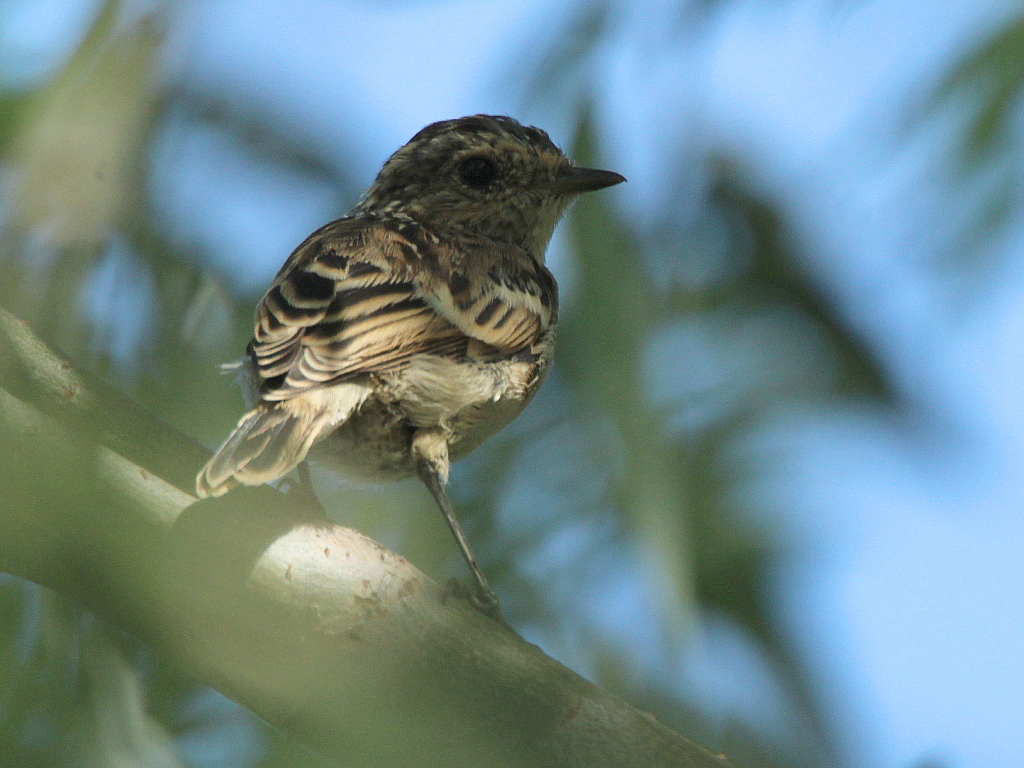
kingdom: Animalia
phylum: Chordata
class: Aves
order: Passeriformes
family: Muscicapidae
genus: Saxicola
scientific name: Saxicola maurus
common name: Siberian stonechat
